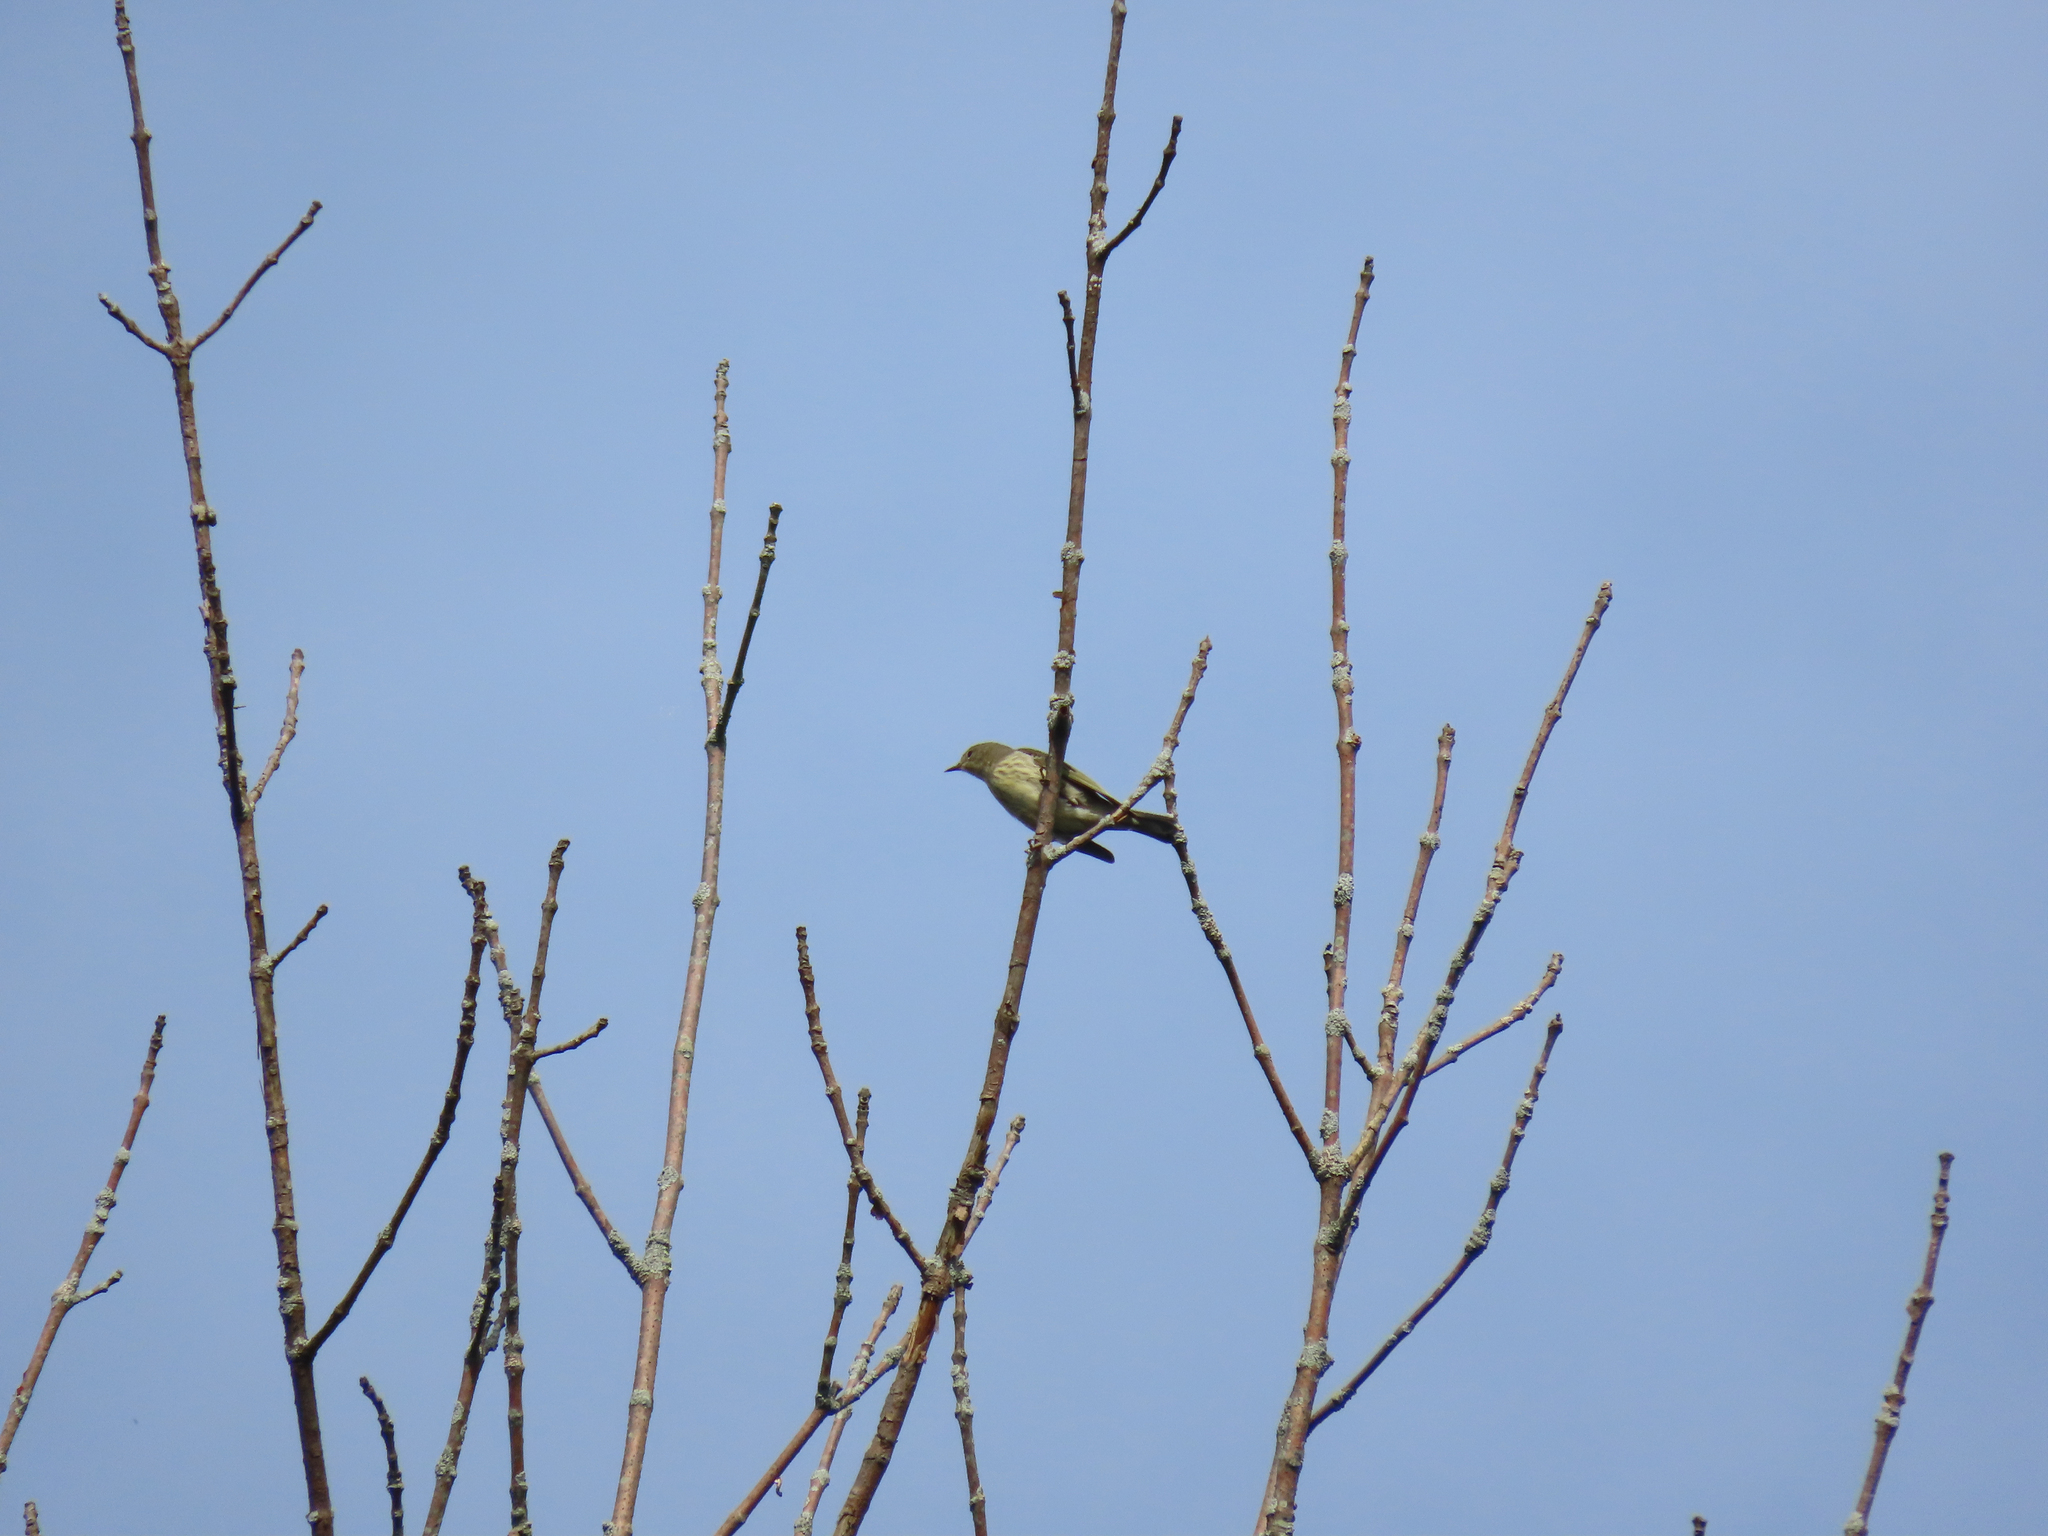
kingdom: Animalia
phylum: Chordata
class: Aves
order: Passeriformes
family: Parulidae
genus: Setophaga
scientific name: Setophaga tigrina
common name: Cape may warbler
